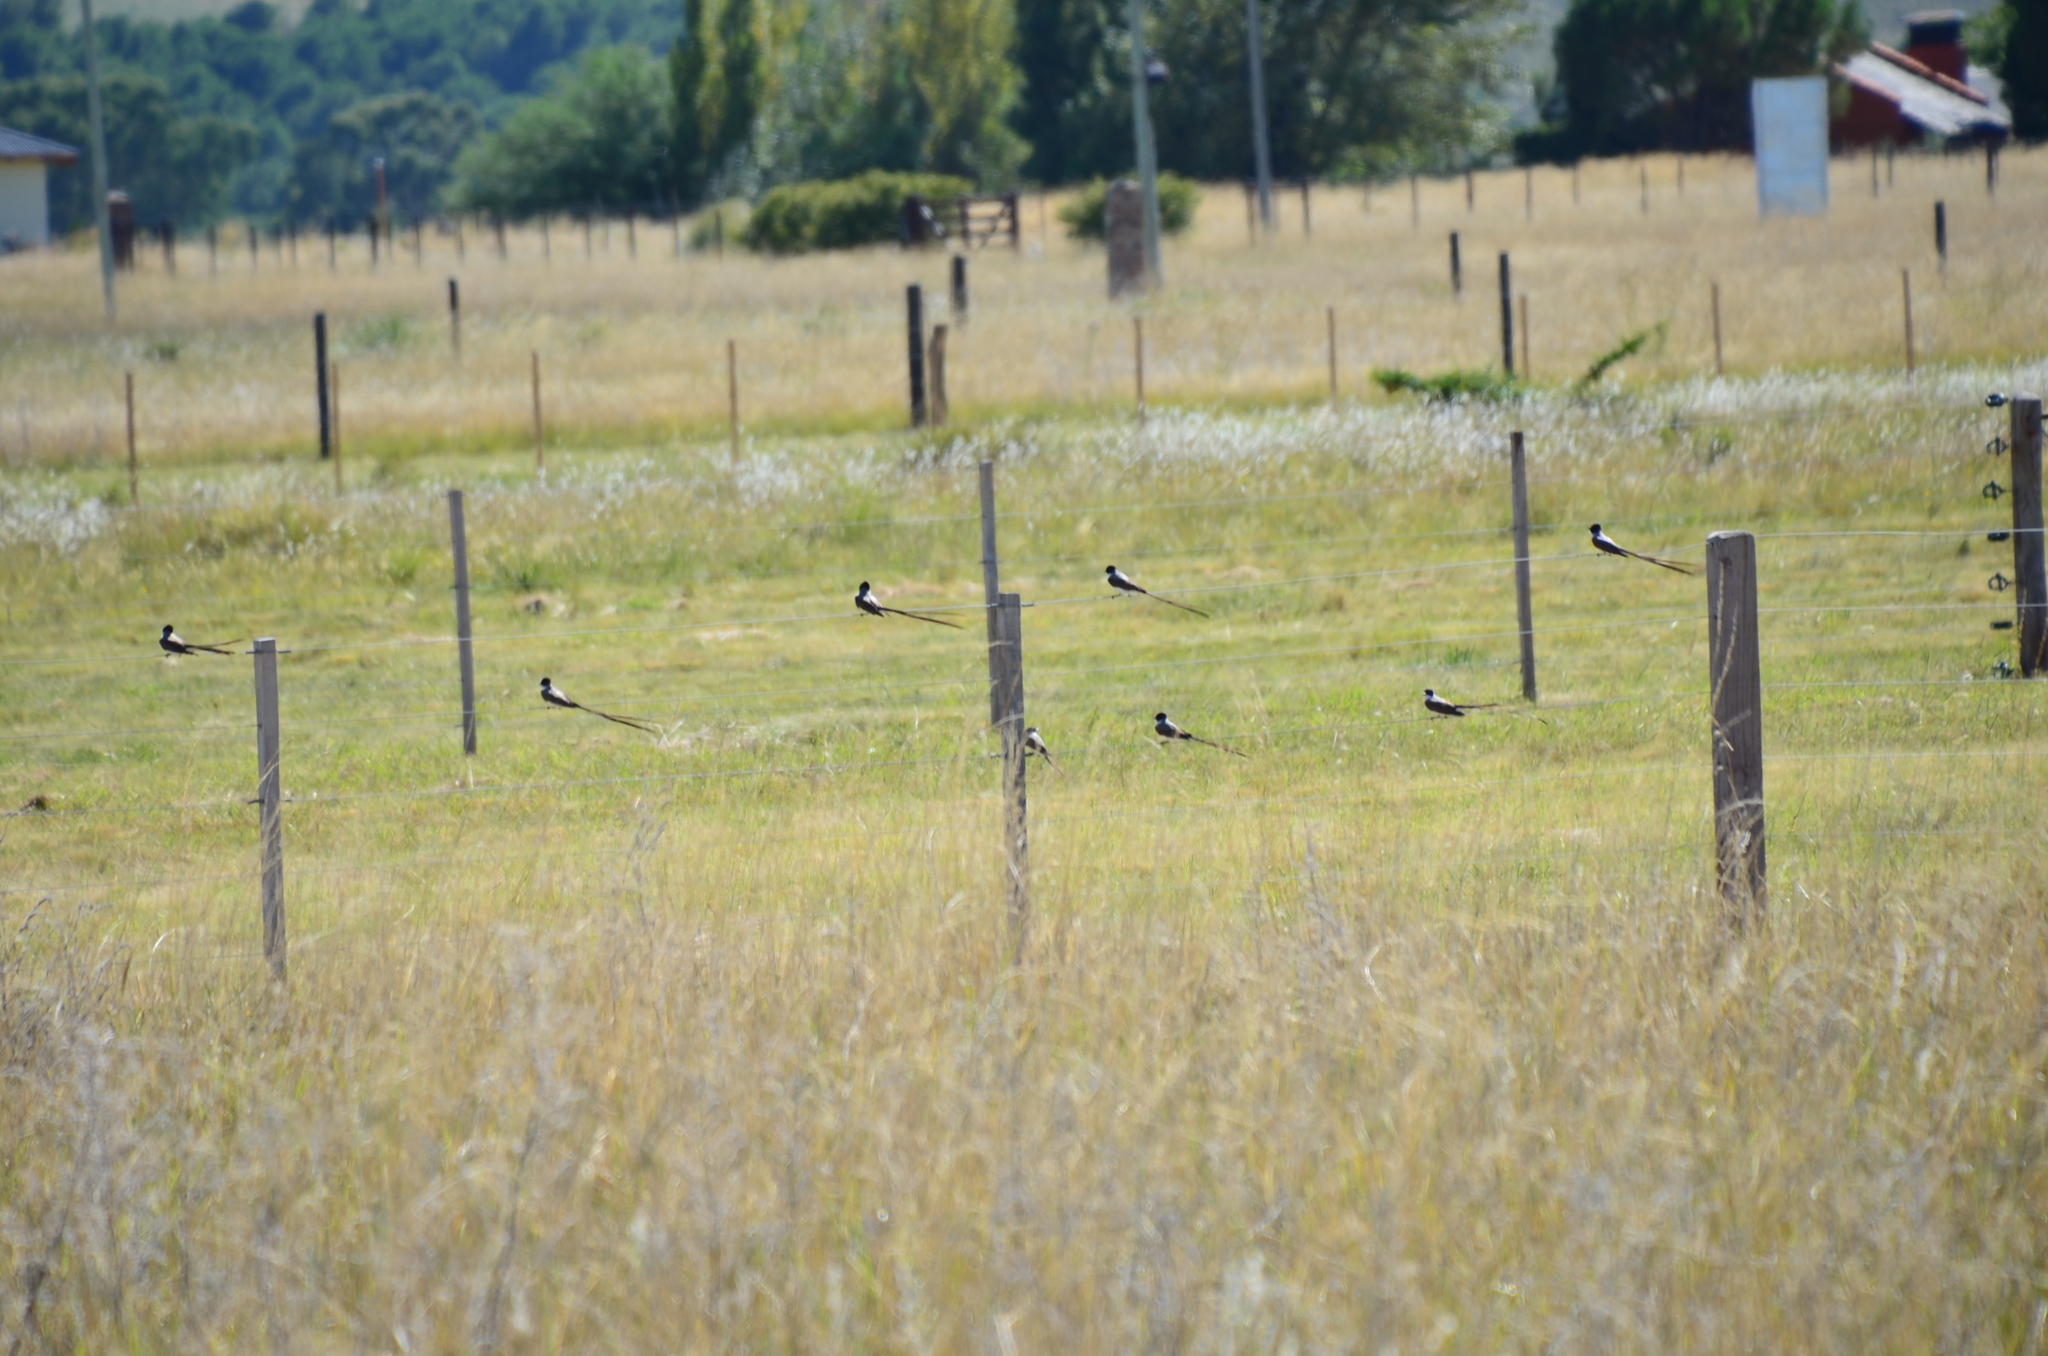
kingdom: Animalia
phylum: Chordata
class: Aves
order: Passeriformes
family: Tyrannidae
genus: Tyrannus
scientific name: Tyrannus savana
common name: Fork-tailed flycatcher
